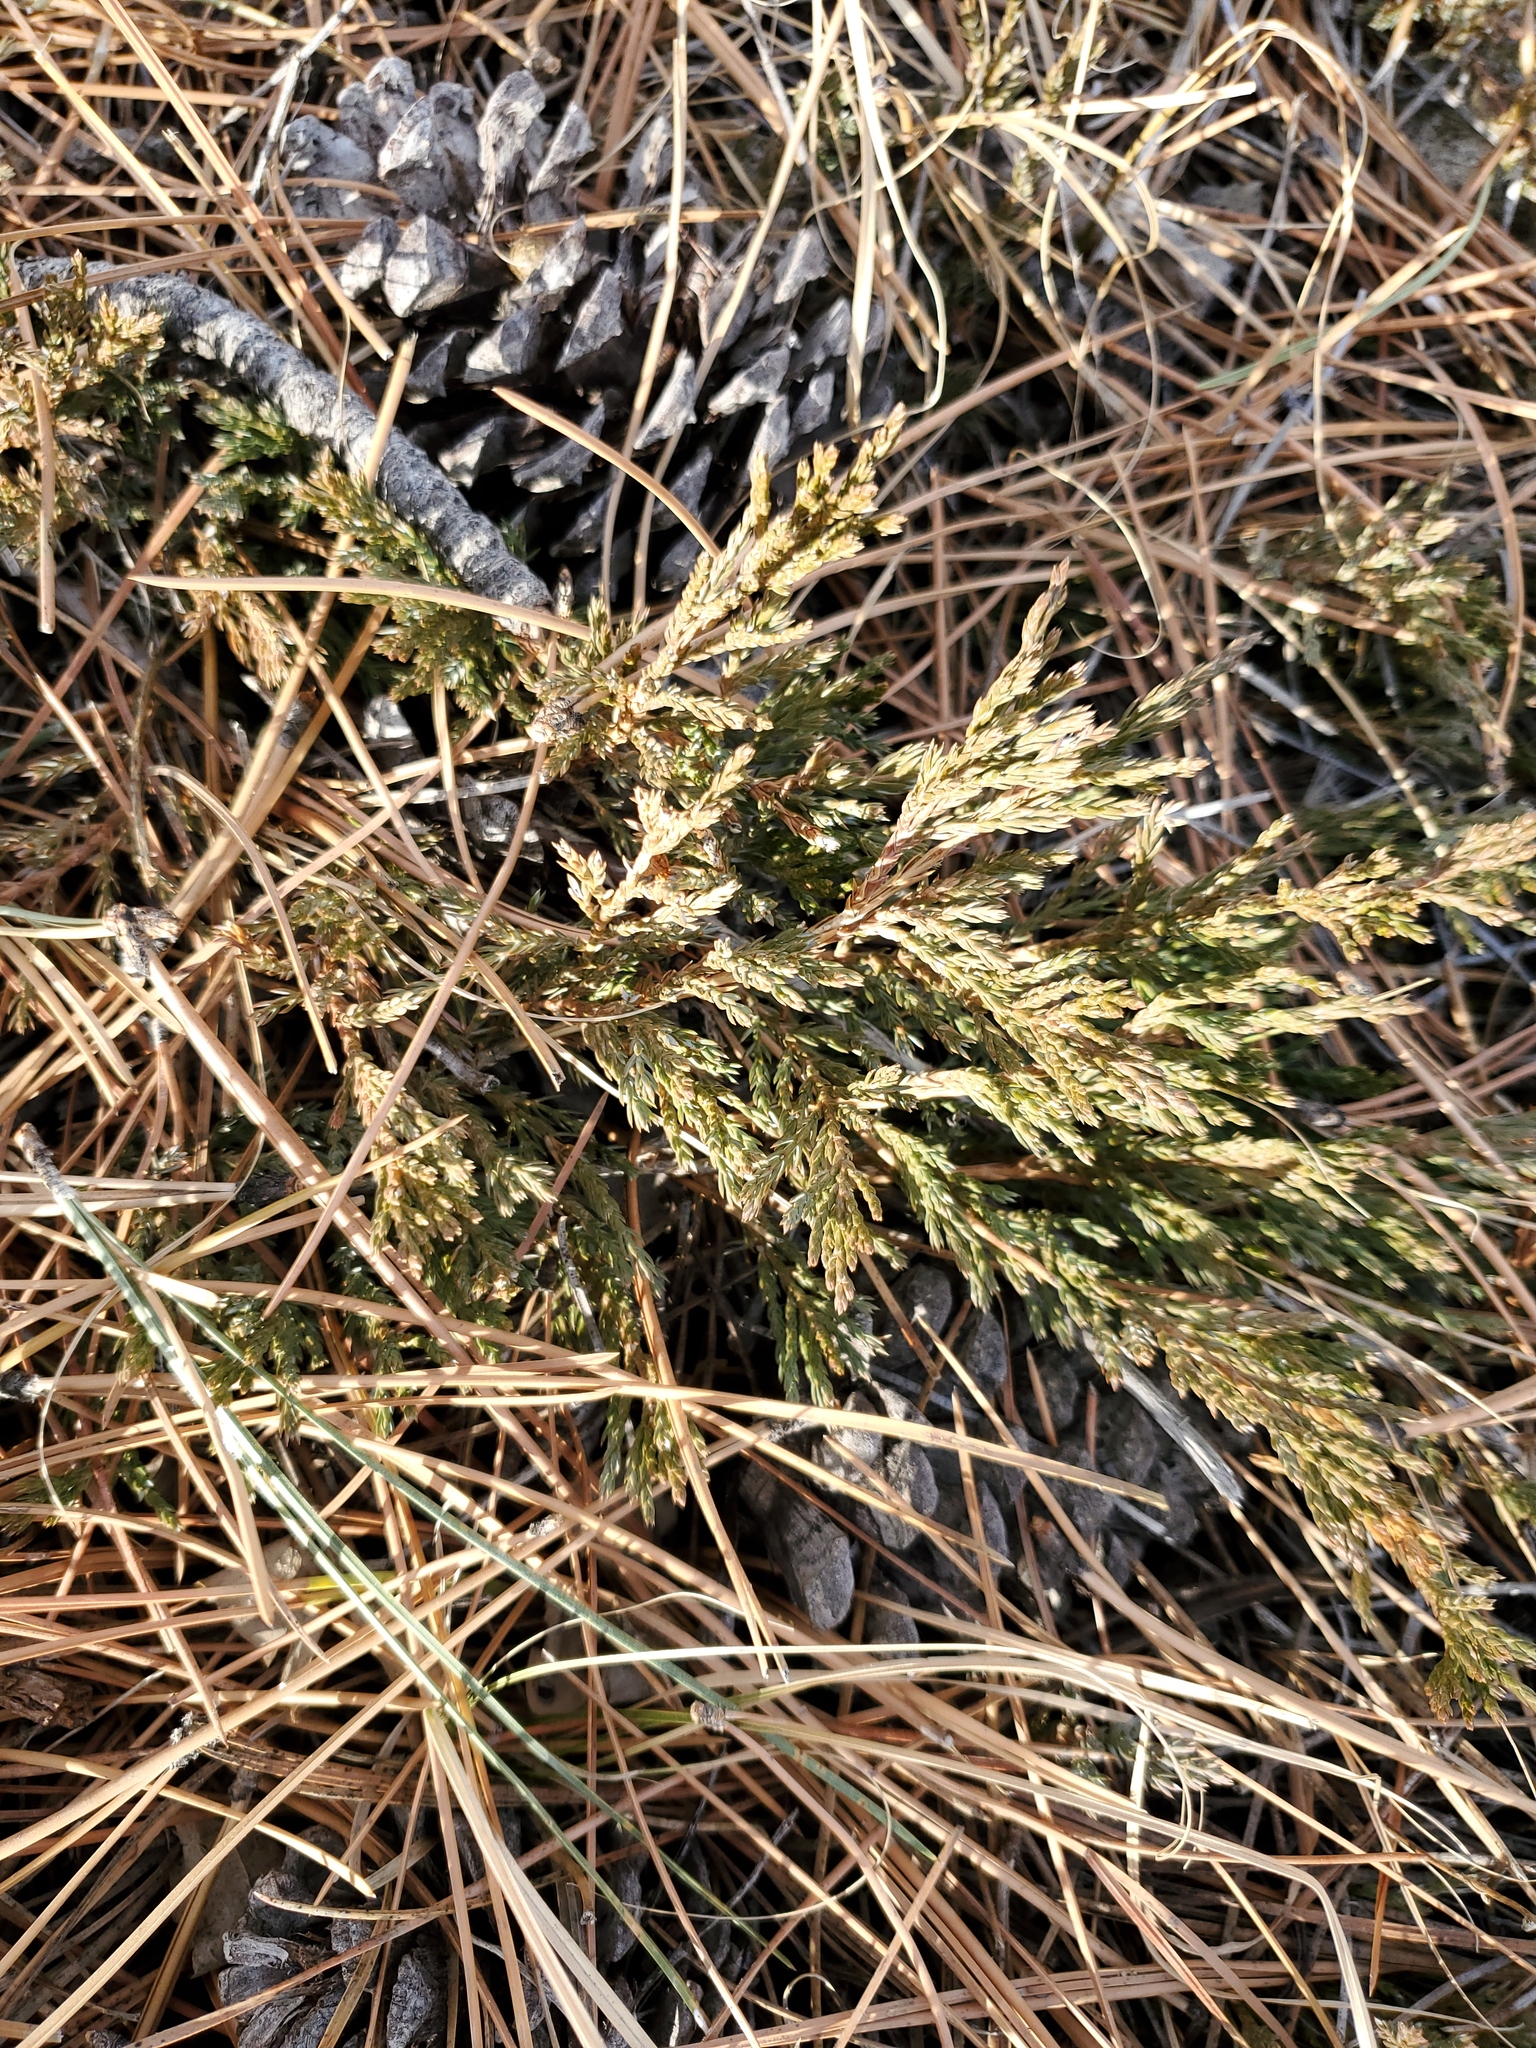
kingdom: Plantae
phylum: Tracheophyta
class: Pinopsida
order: Pinales
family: Cupressaceae
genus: Juniperus
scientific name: Juniperus horizontalis
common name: Creeping juniper
